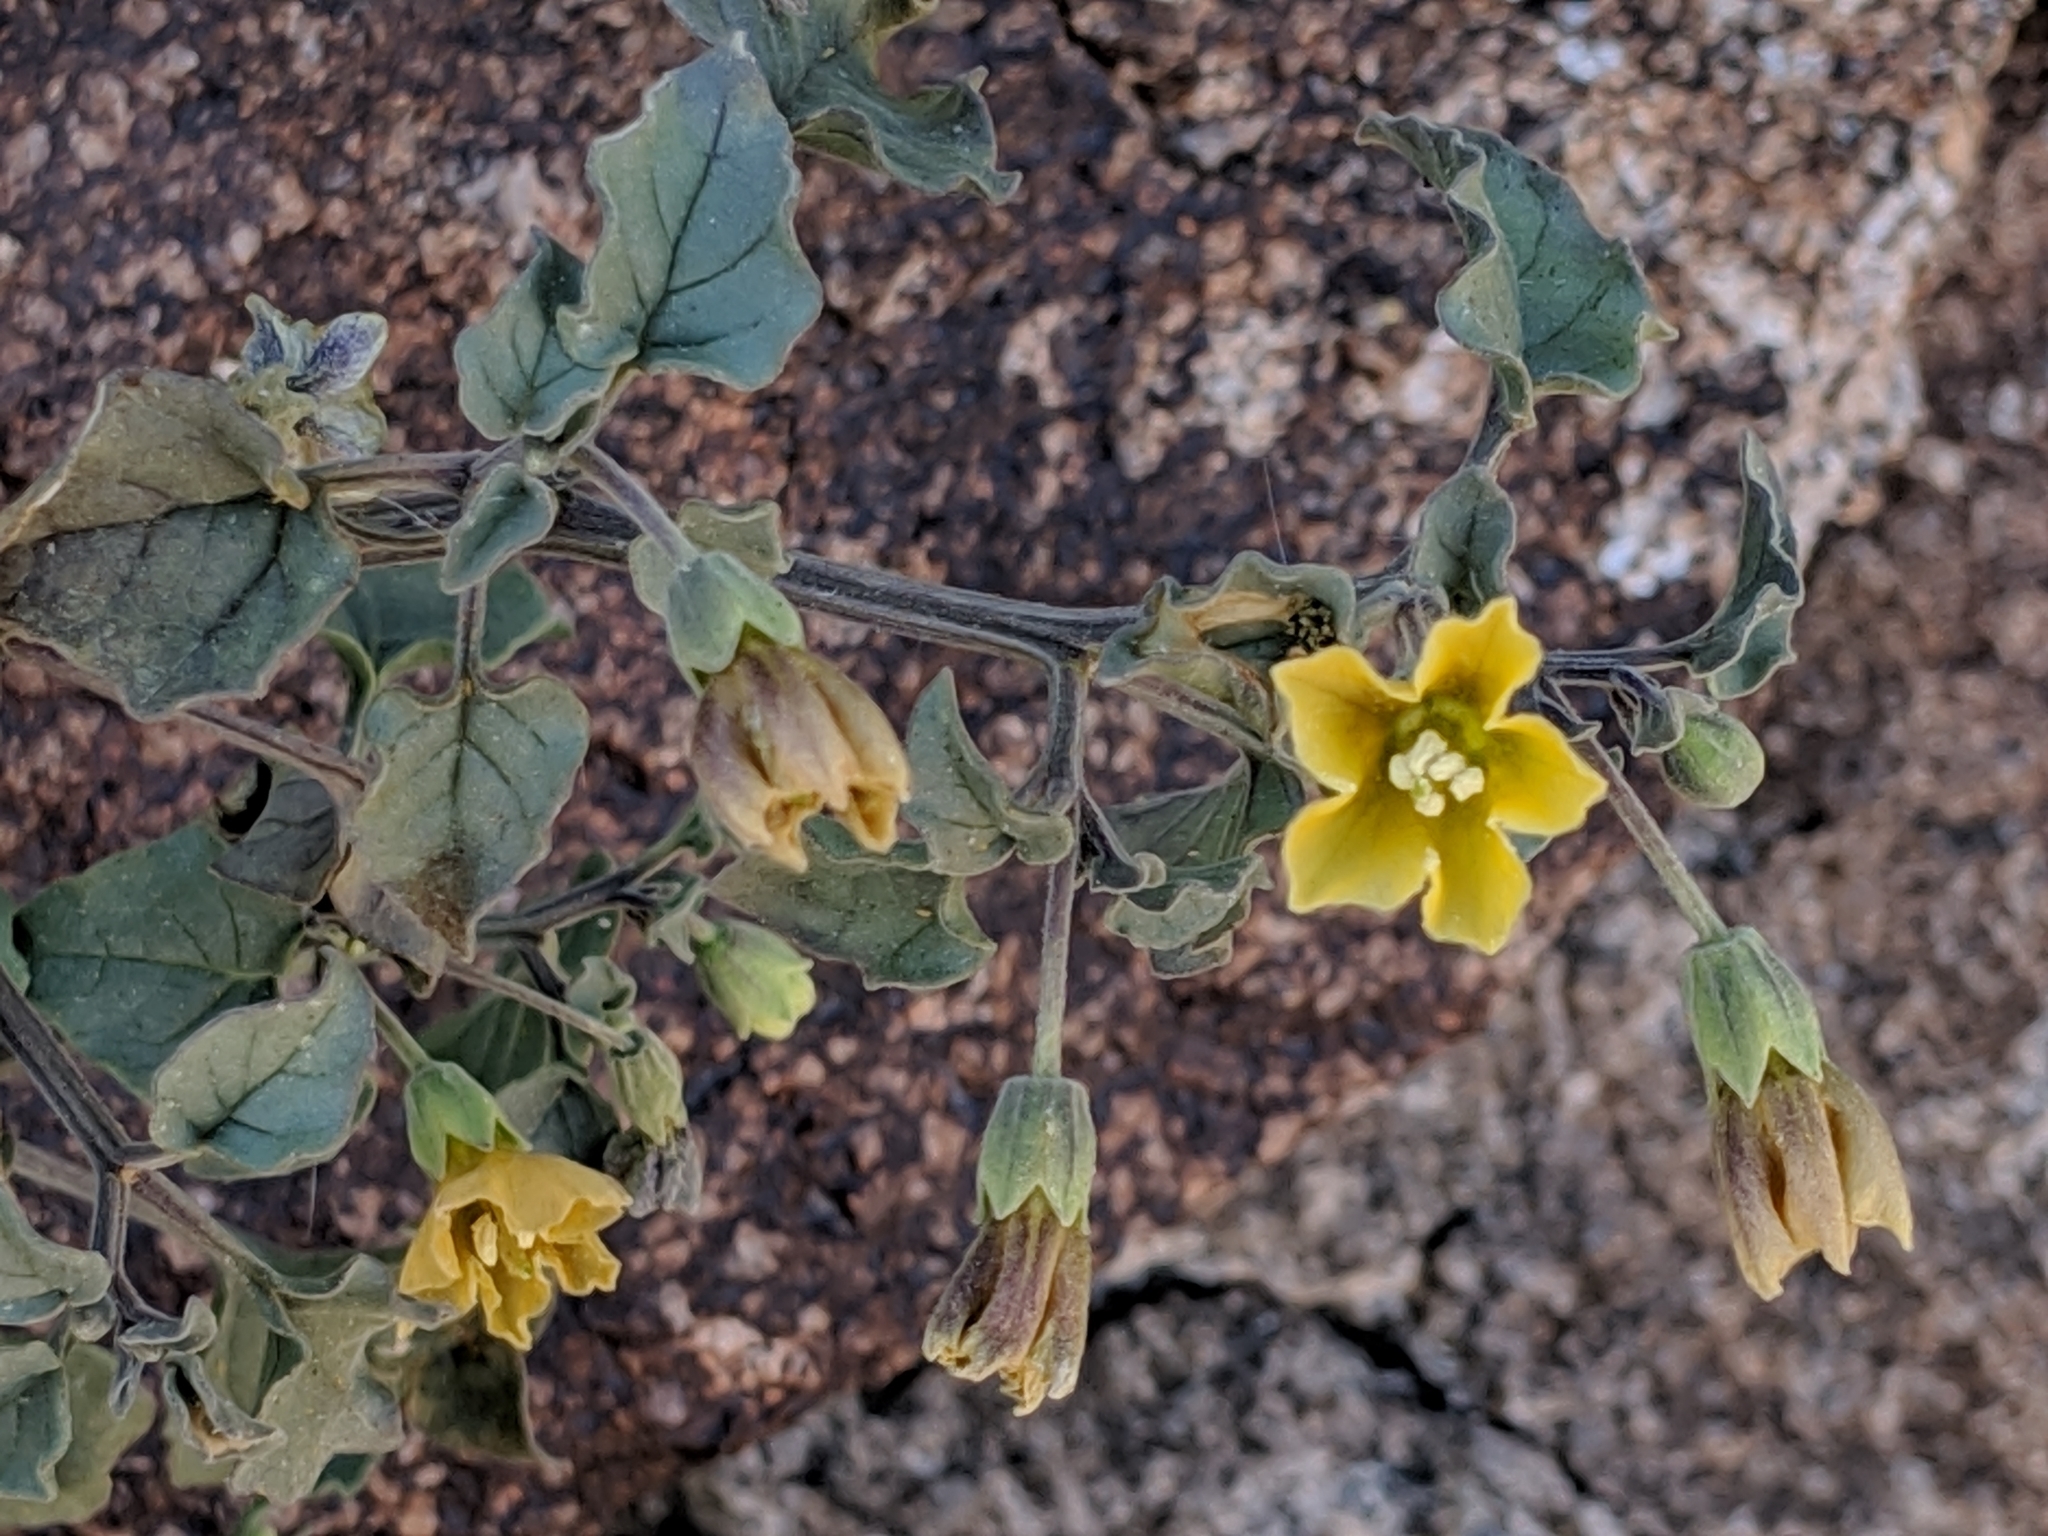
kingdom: Plantae
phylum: Tracheophyta
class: Magnoliopsida
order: Solanales
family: Solanaceae
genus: Physalis
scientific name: Physalis crassifolia
